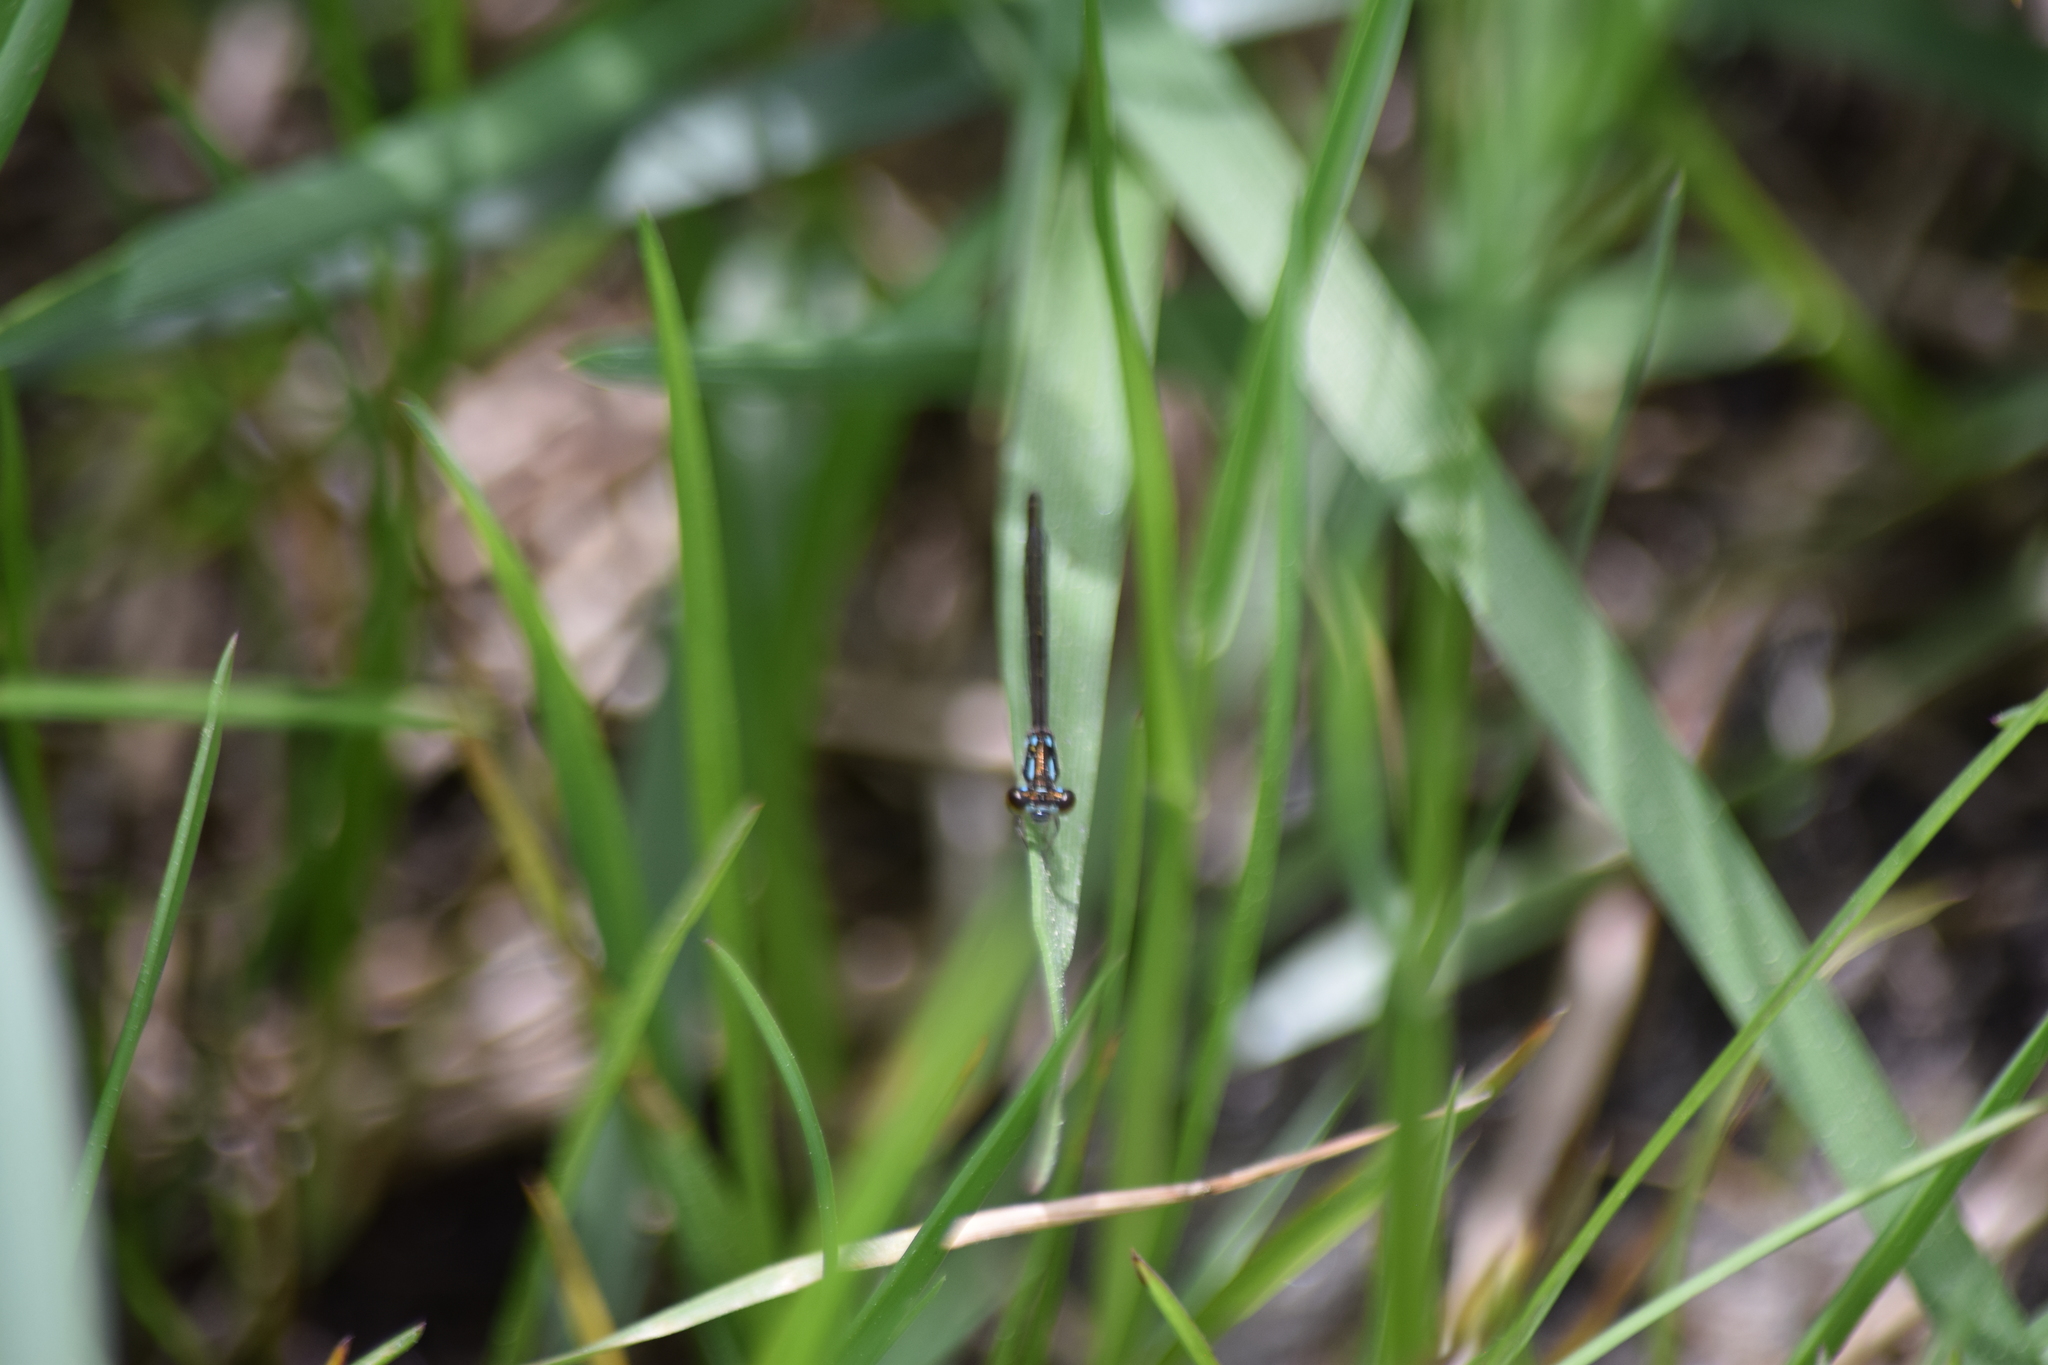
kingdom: Animalia
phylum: Arthropoda
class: Insecta
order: Odonata
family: Coenagrionidae
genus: Ischnura
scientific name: Ischnura posita
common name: Fragile forktail
